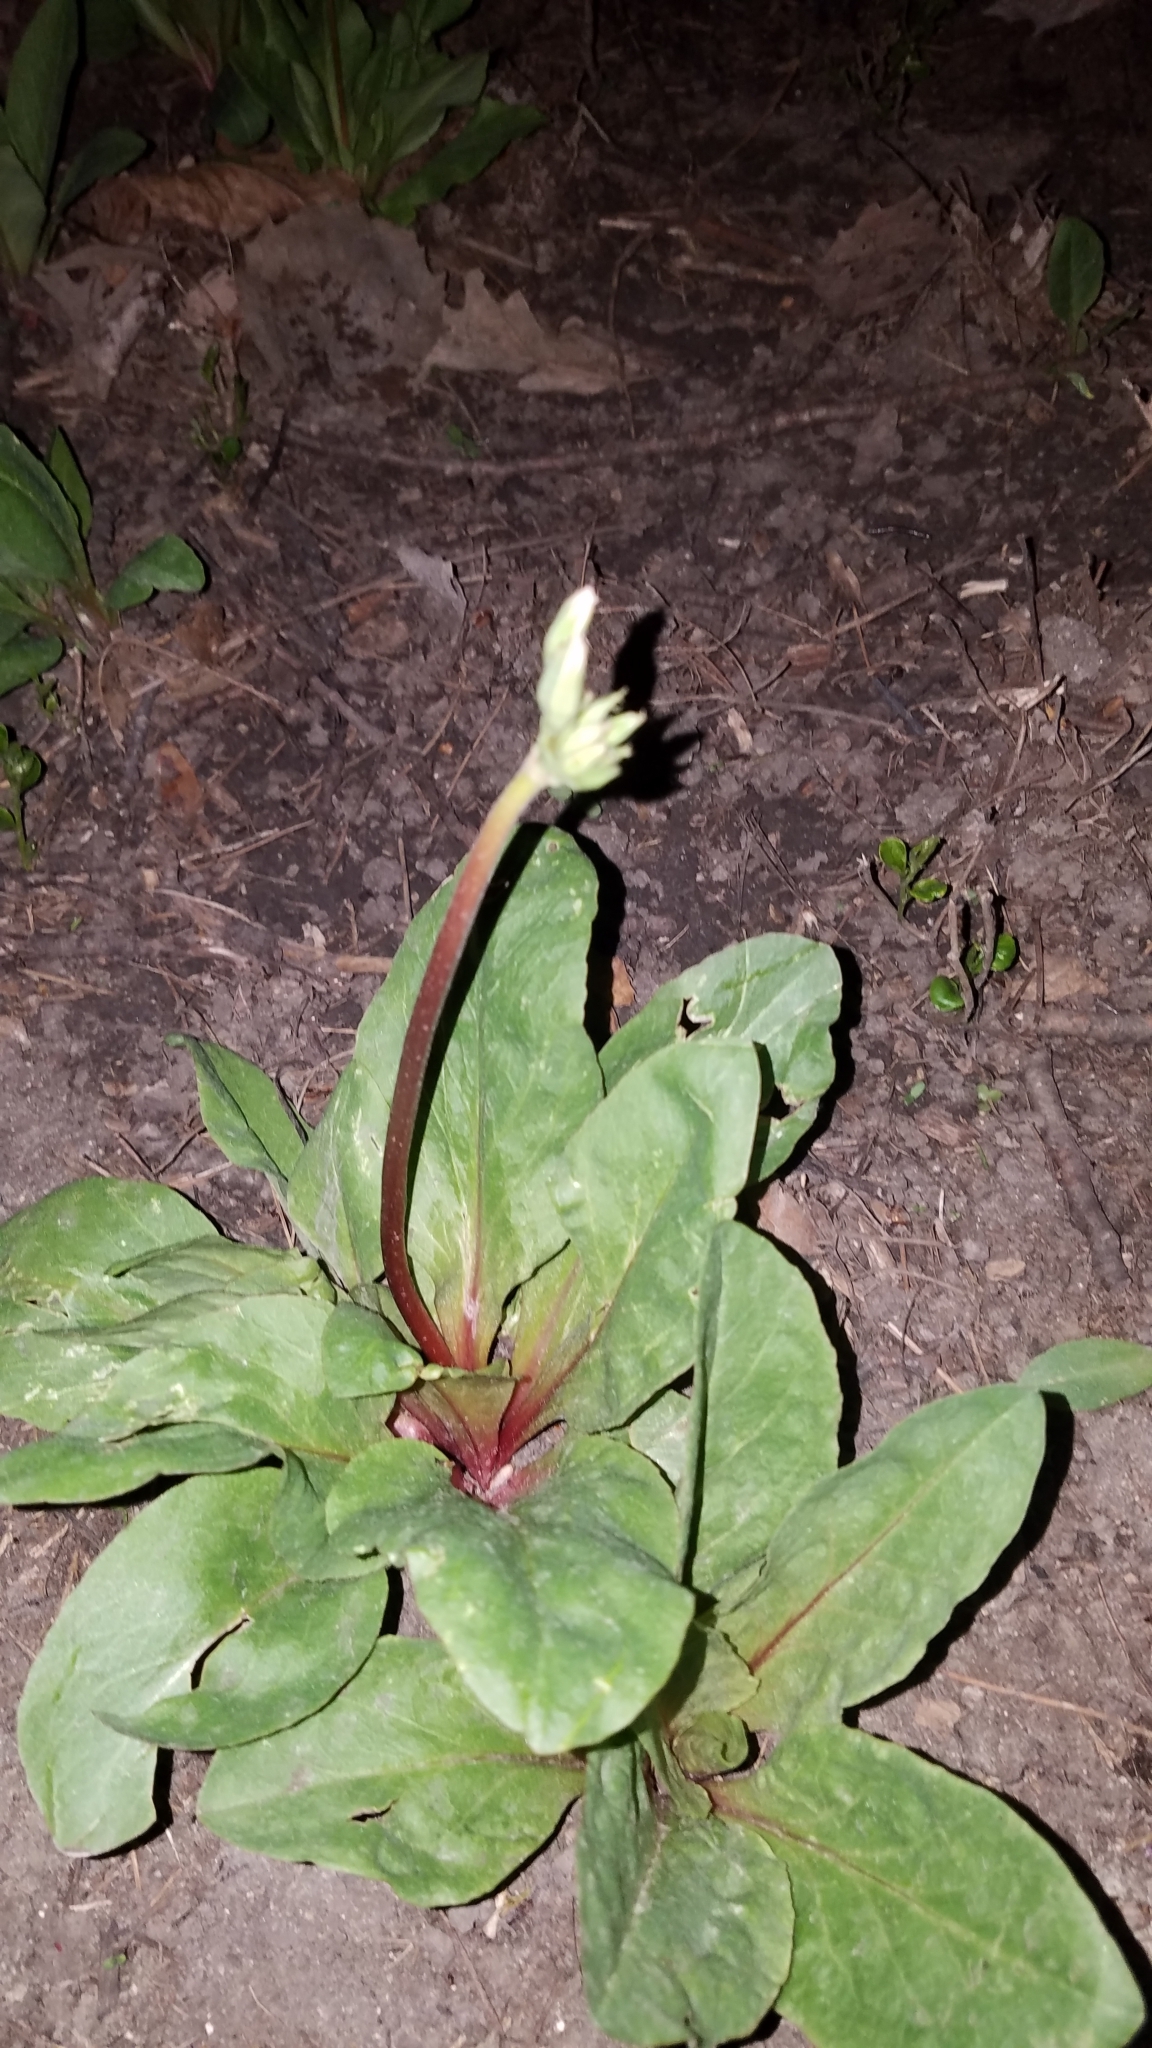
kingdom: Plantae
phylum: Tracheophyta
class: Magnoliopsida
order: Ericales
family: Primulaceae
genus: Dodecatheon
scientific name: Dodecatheon meadia
